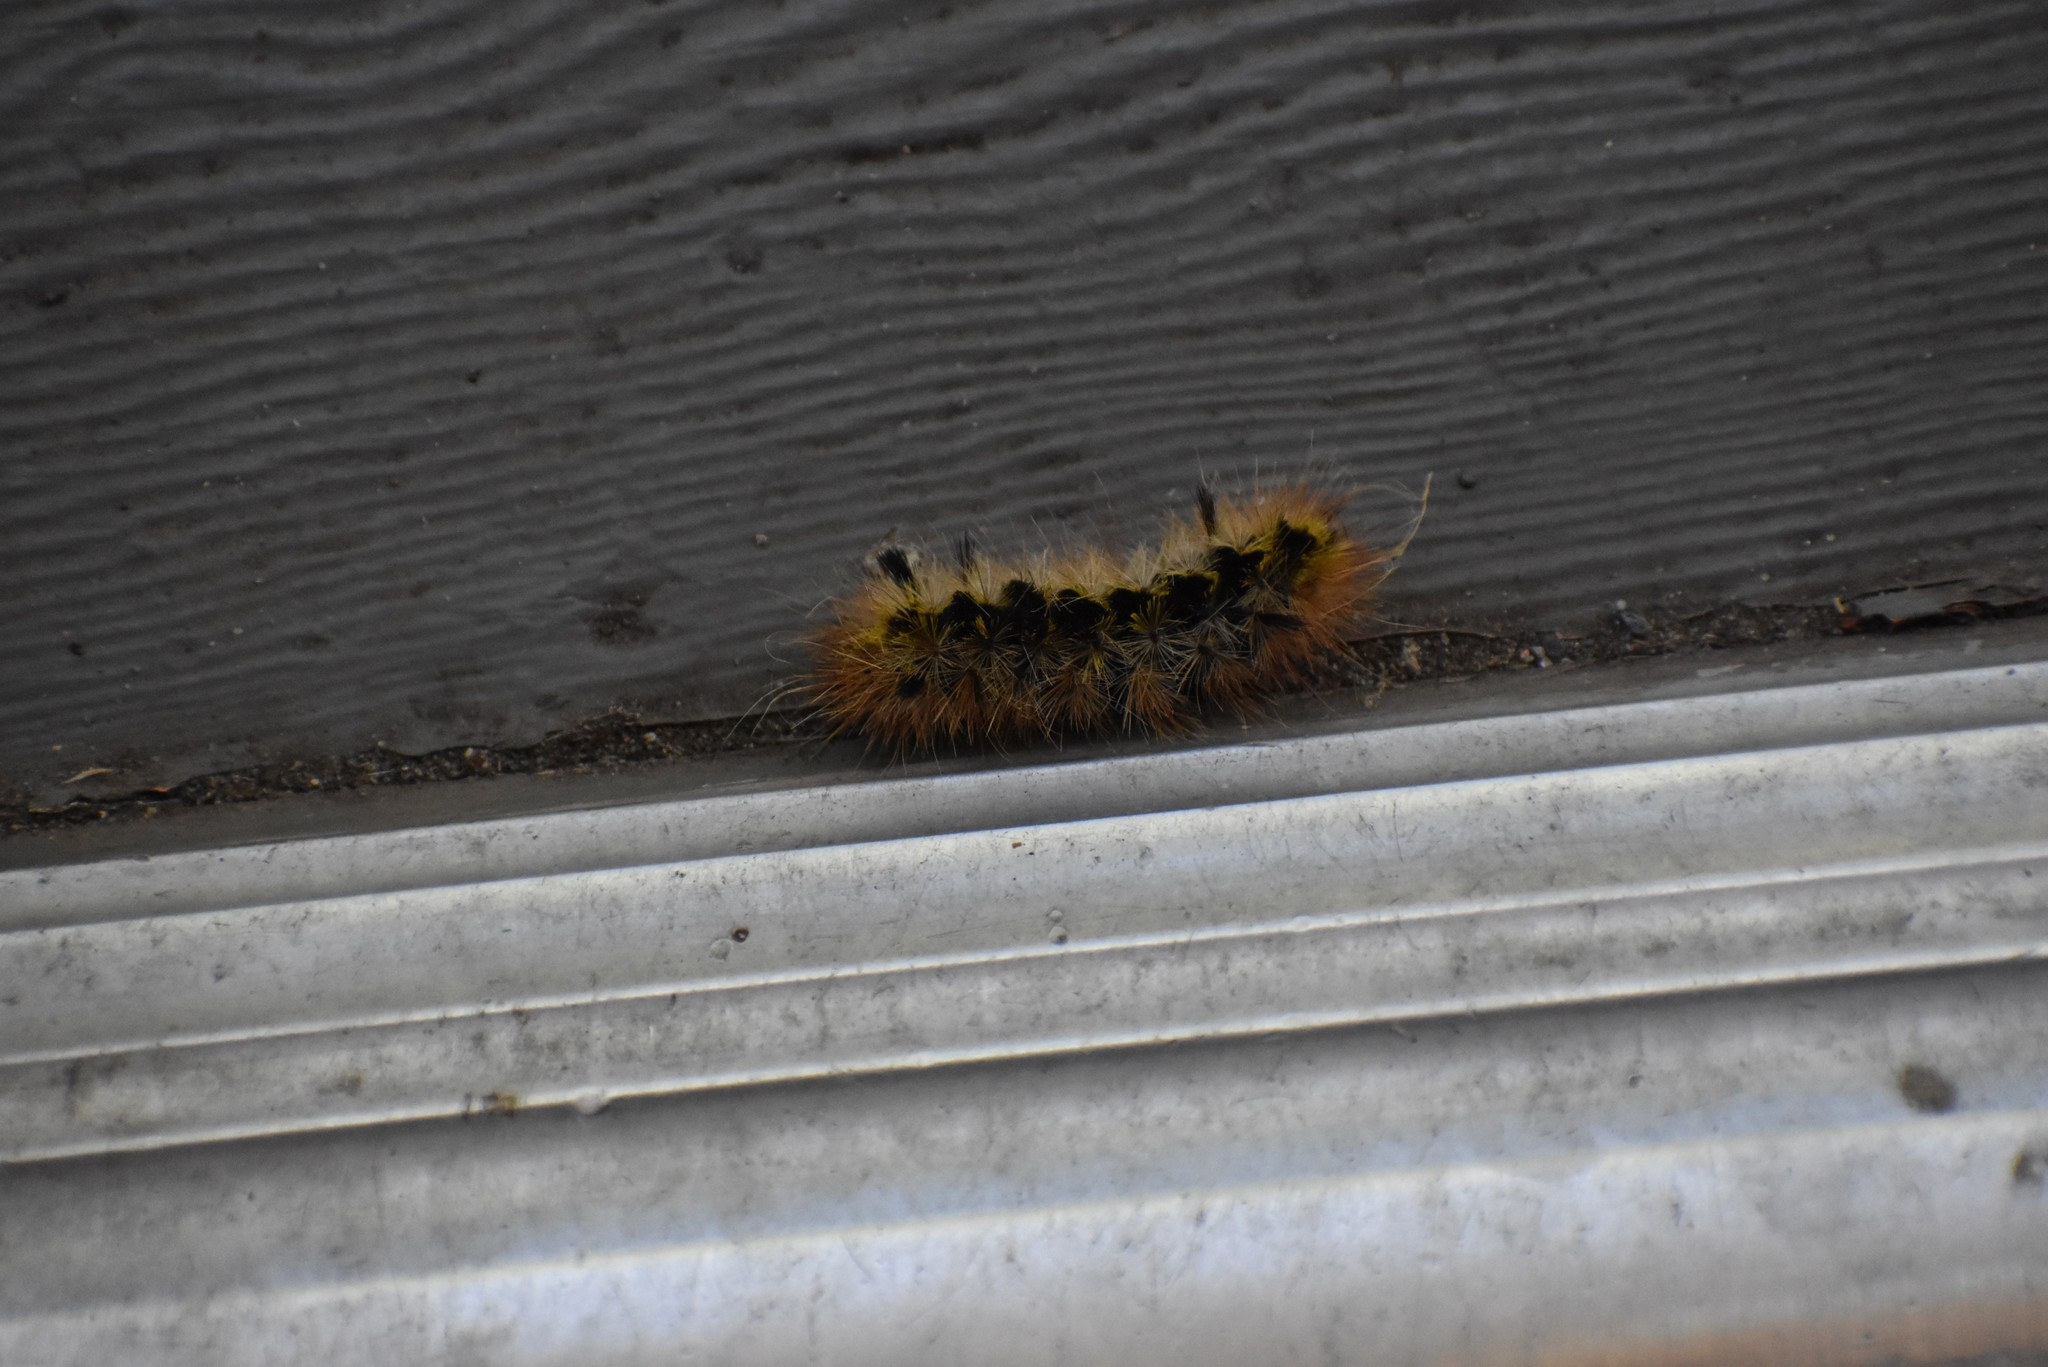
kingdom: Animalia
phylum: Arthropoda
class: Insecta
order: Lepidoptera
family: Erebidae
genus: Lophocampa
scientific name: Lophocampa argentata
